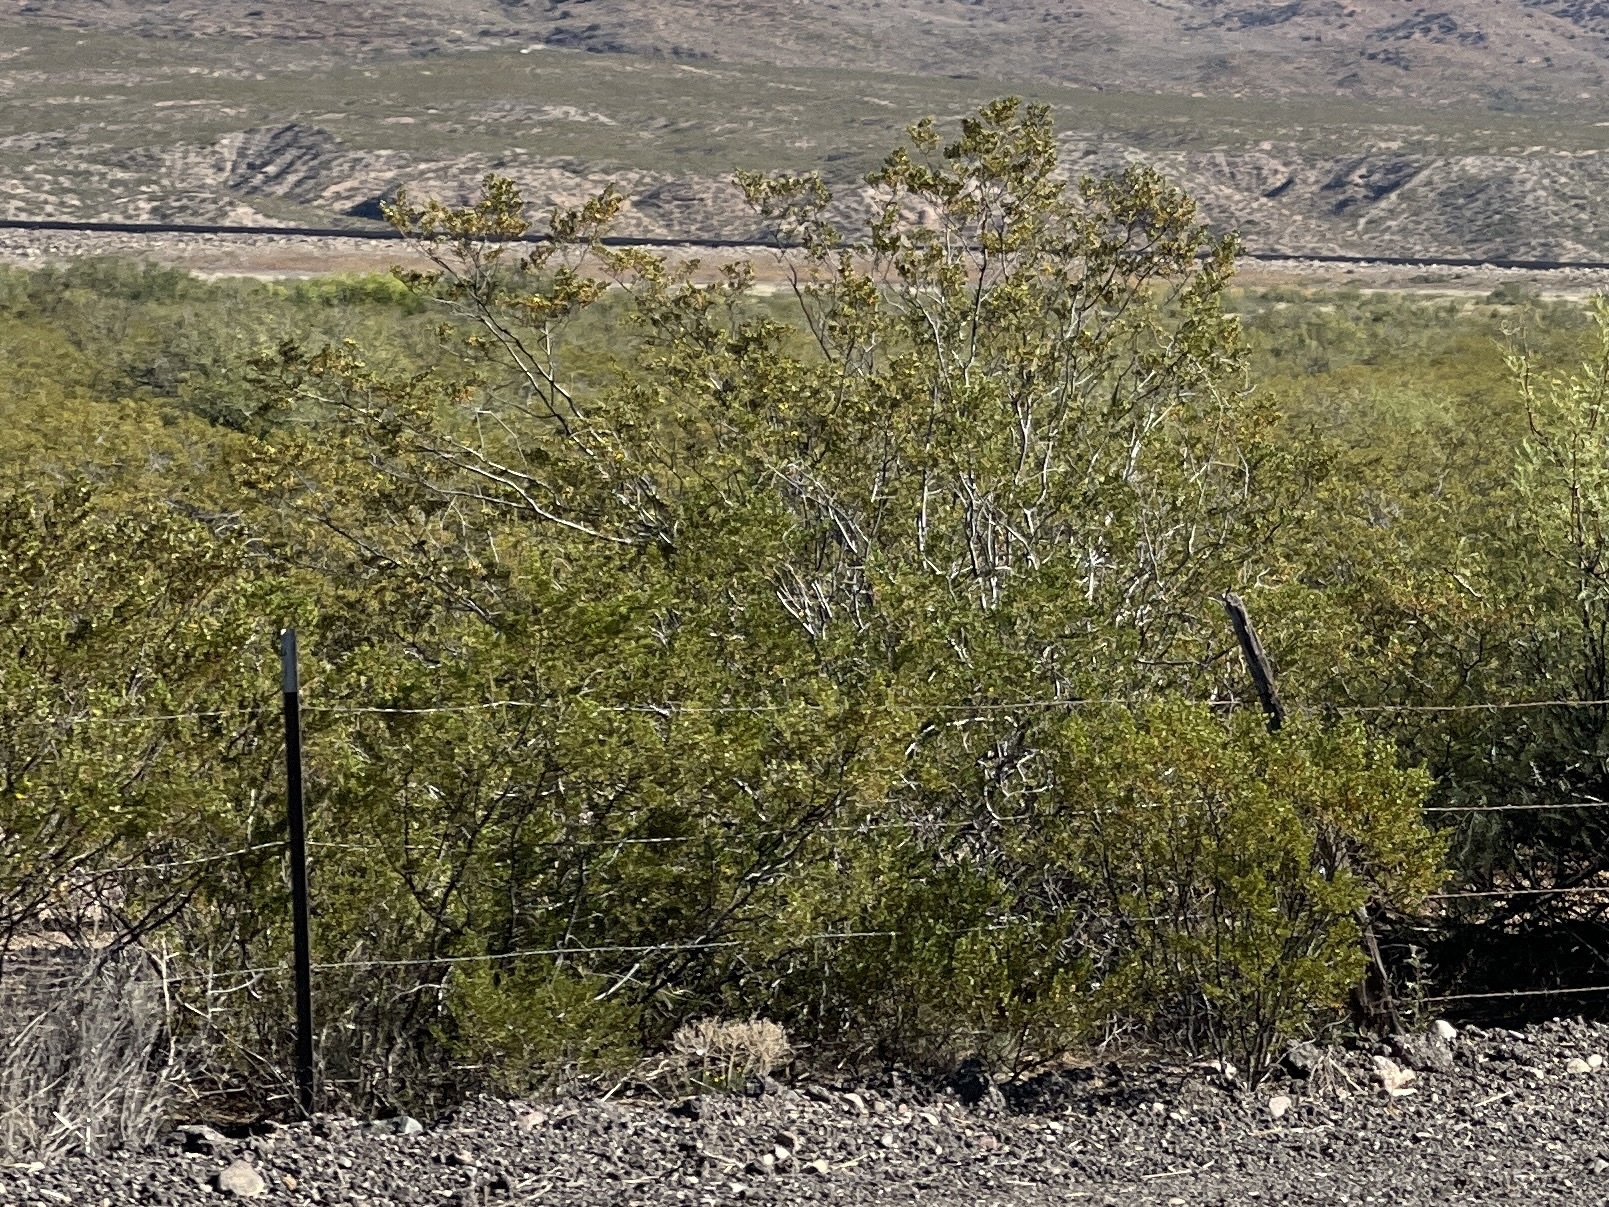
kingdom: Plantae
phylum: Tracheophyta
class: Magnoliopsida
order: Zygophyllales
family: Zygophyllaceae
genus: Larrea
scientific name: Larrea tridentata
